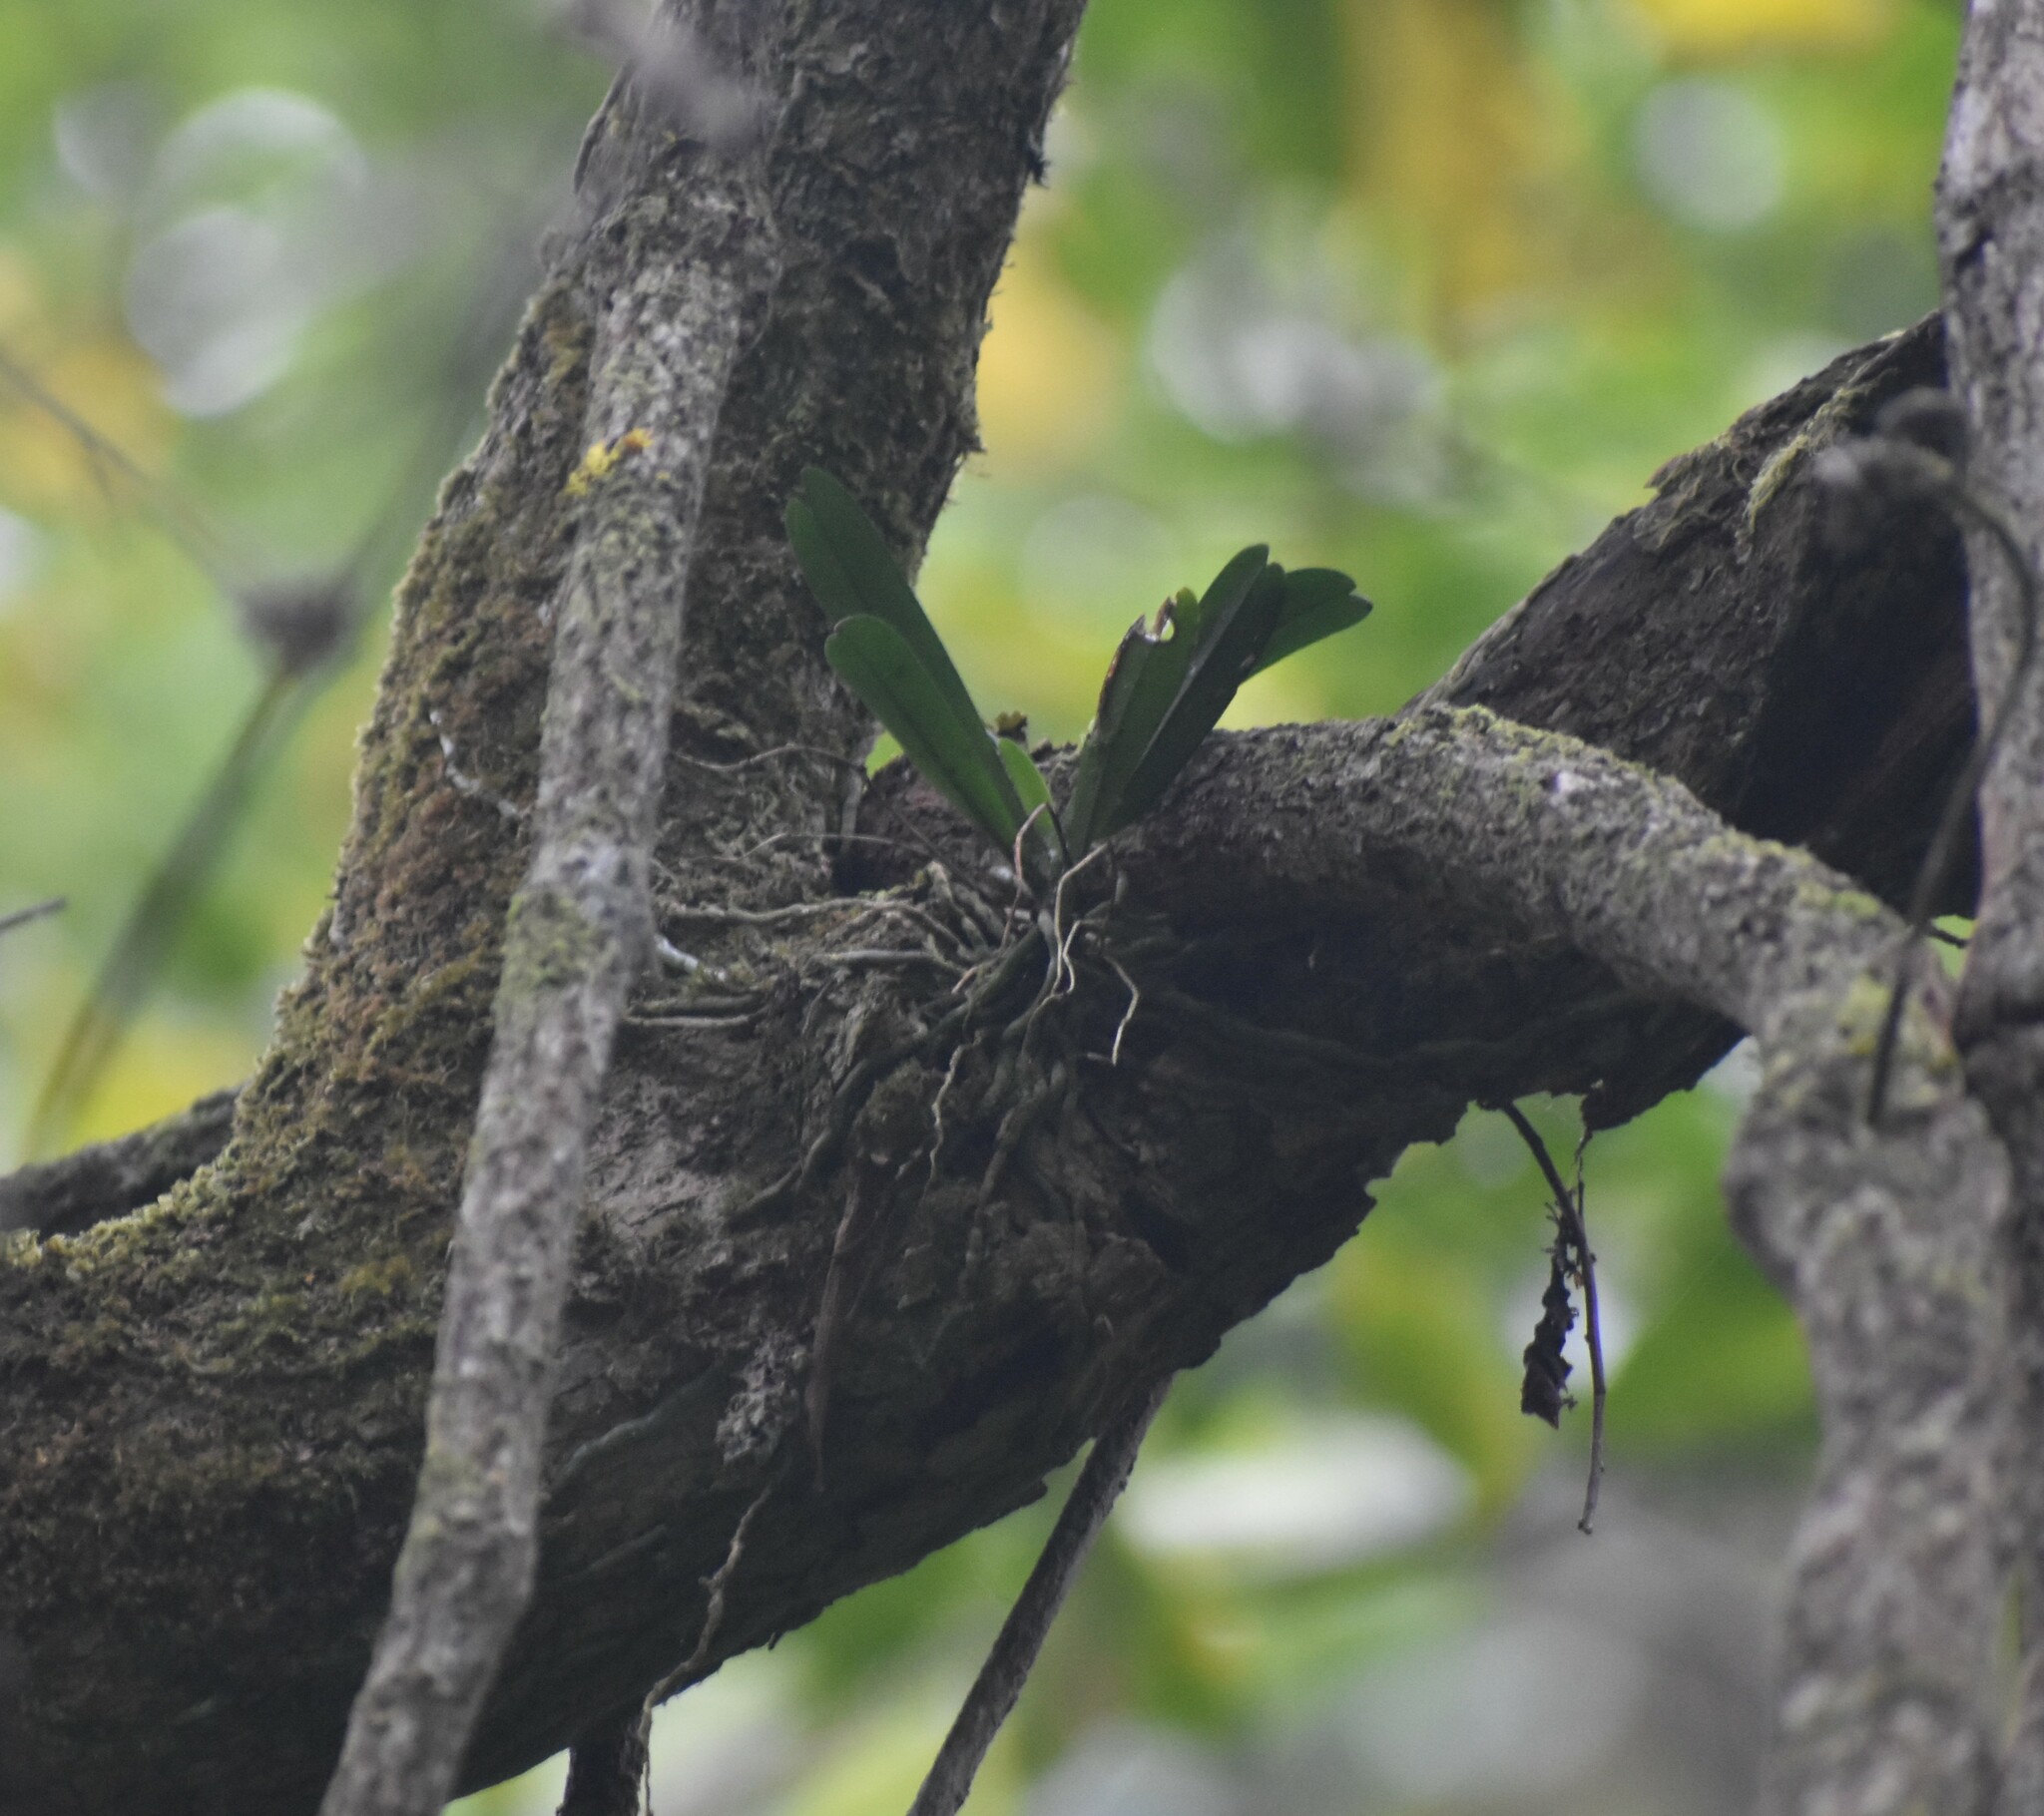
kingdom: Plantae
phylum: Tracheophyta
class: Liliopsida
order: Asparagales
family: Orchidaceae
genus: Mystacidium
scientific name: Mystacidium capense
